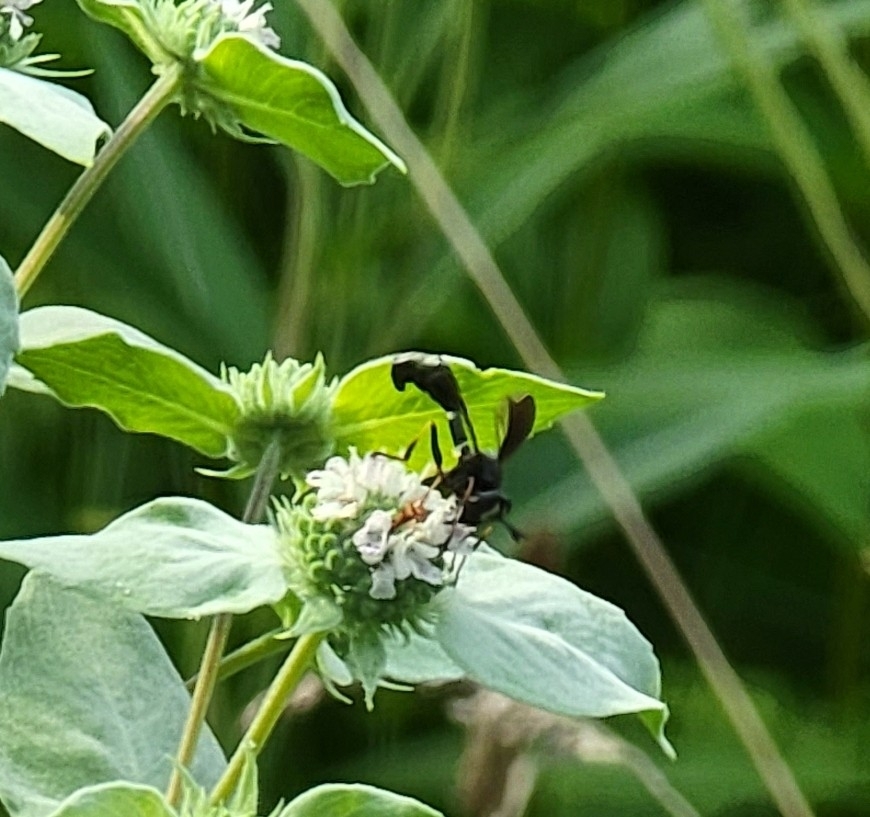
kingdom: Animalia
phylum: Arthropoda
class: Insecta
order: Diptera
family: Conopidae
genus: Physocephala
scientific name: Physocephala tibialis
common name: Common eastern physocephala
